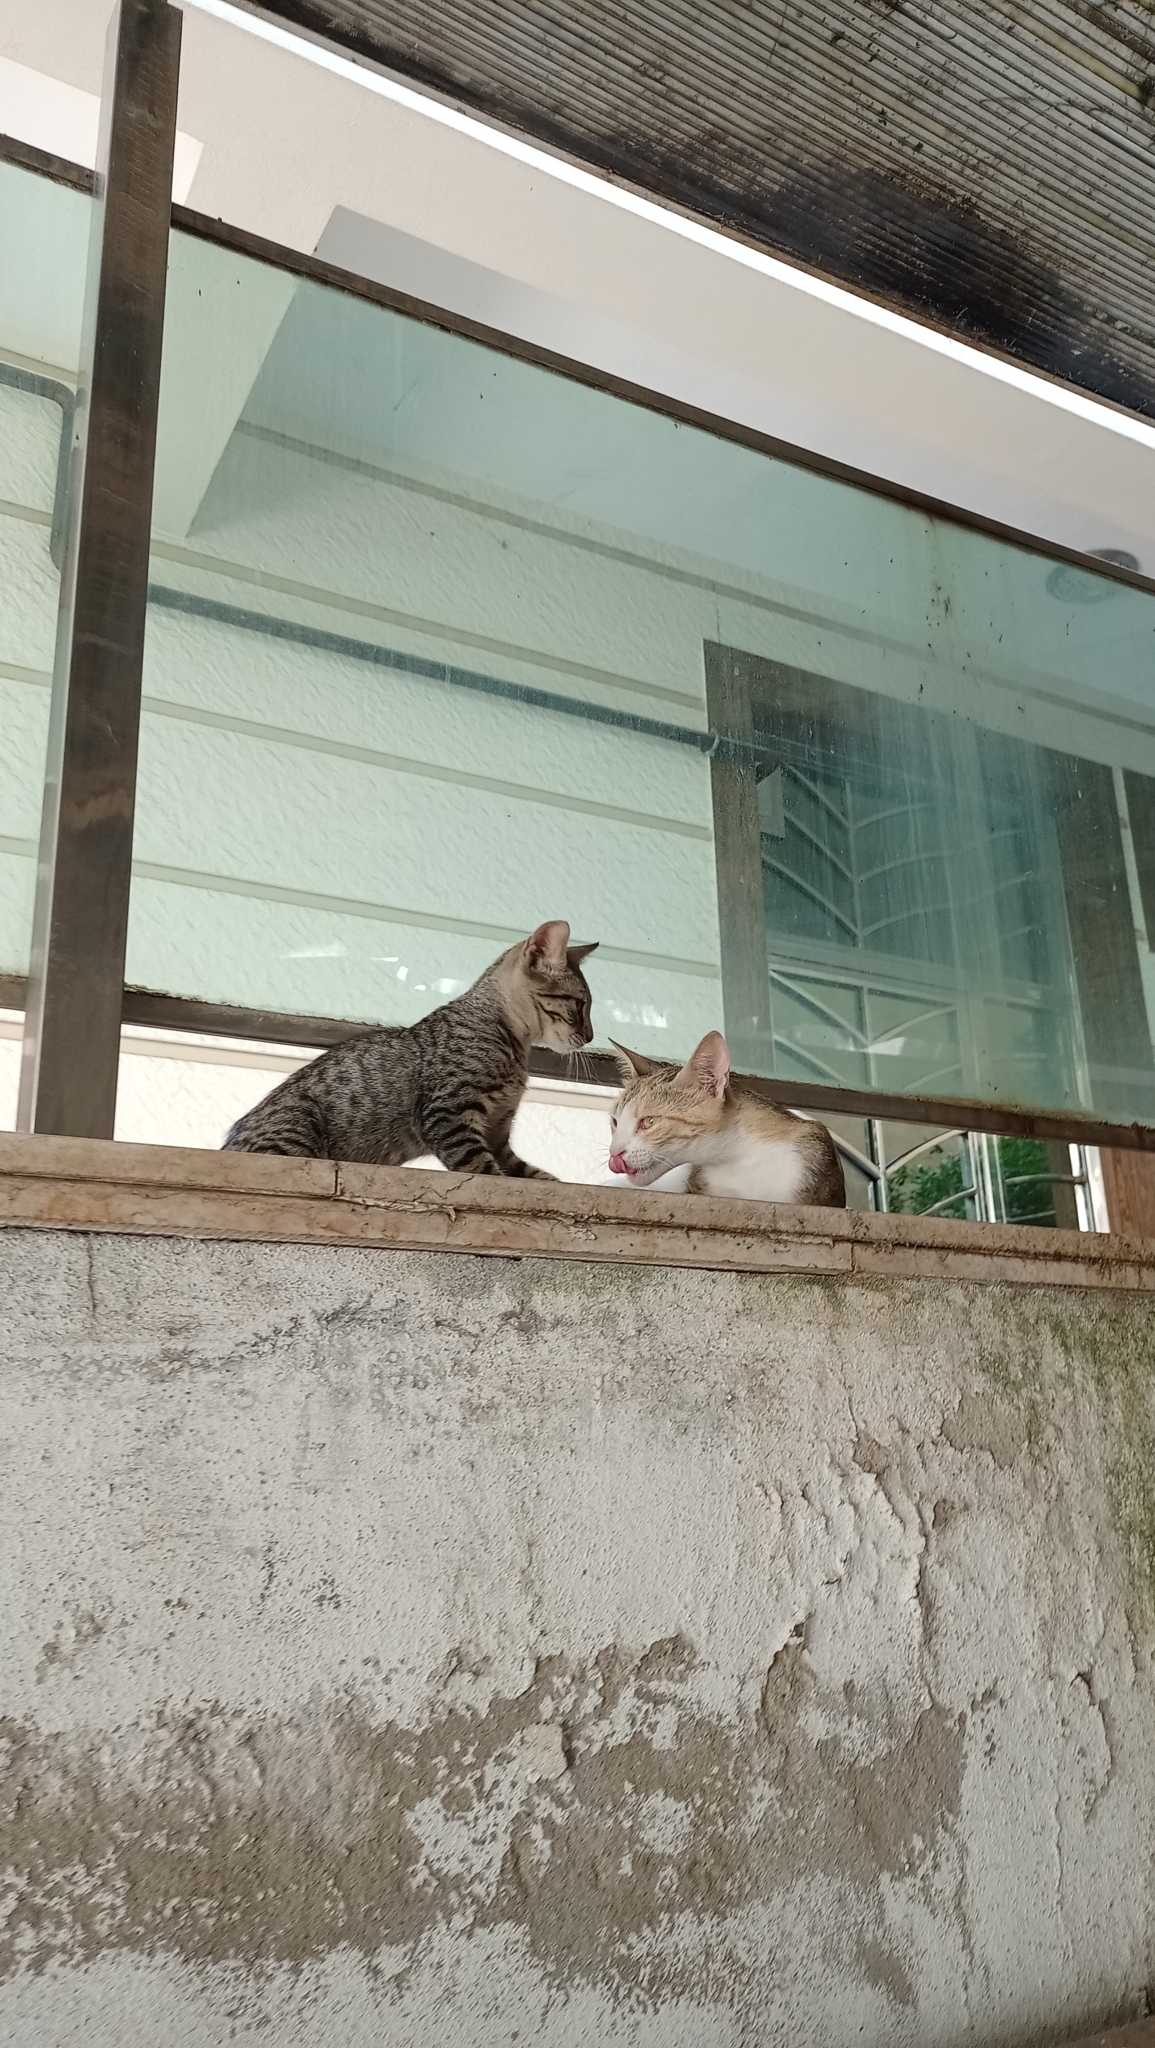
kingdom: Animalia
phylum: Chordata
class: Mammalia
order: Carnivora
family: Felidae
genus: Felis
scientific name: Felis catus
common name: Domestic cat
